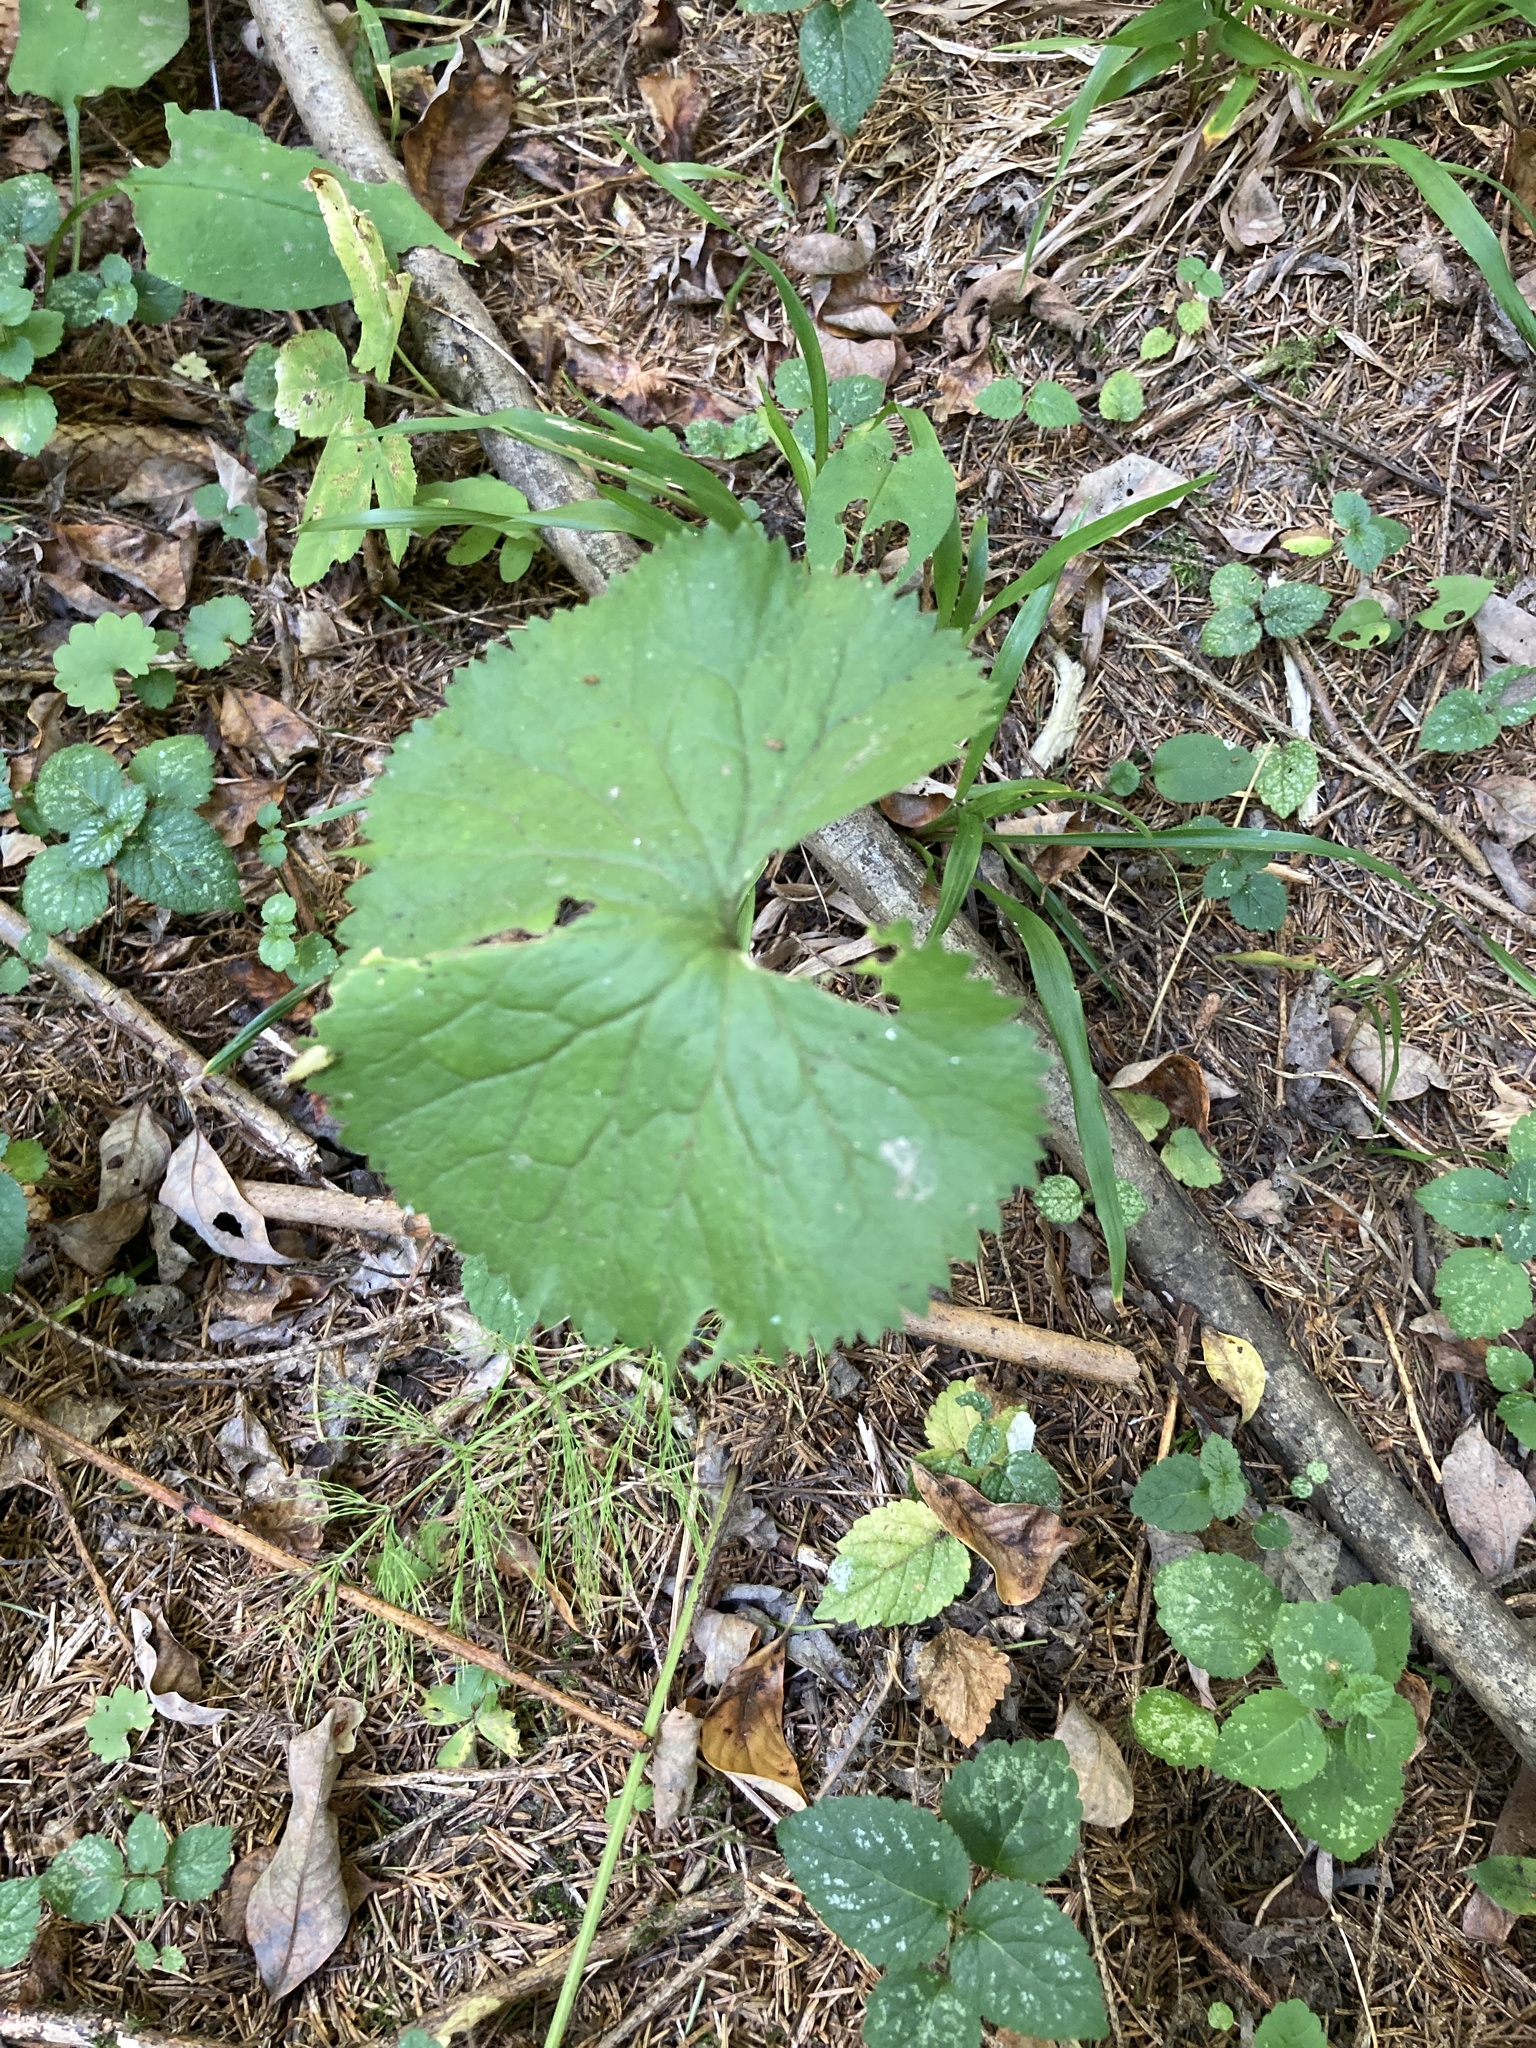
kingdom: Plantae
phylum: Tracheophyta
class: Magnoliopsida
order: Ranunculales
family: Ranunculaceae
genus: Ranunculus
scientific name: Ranunculus cassubicus
